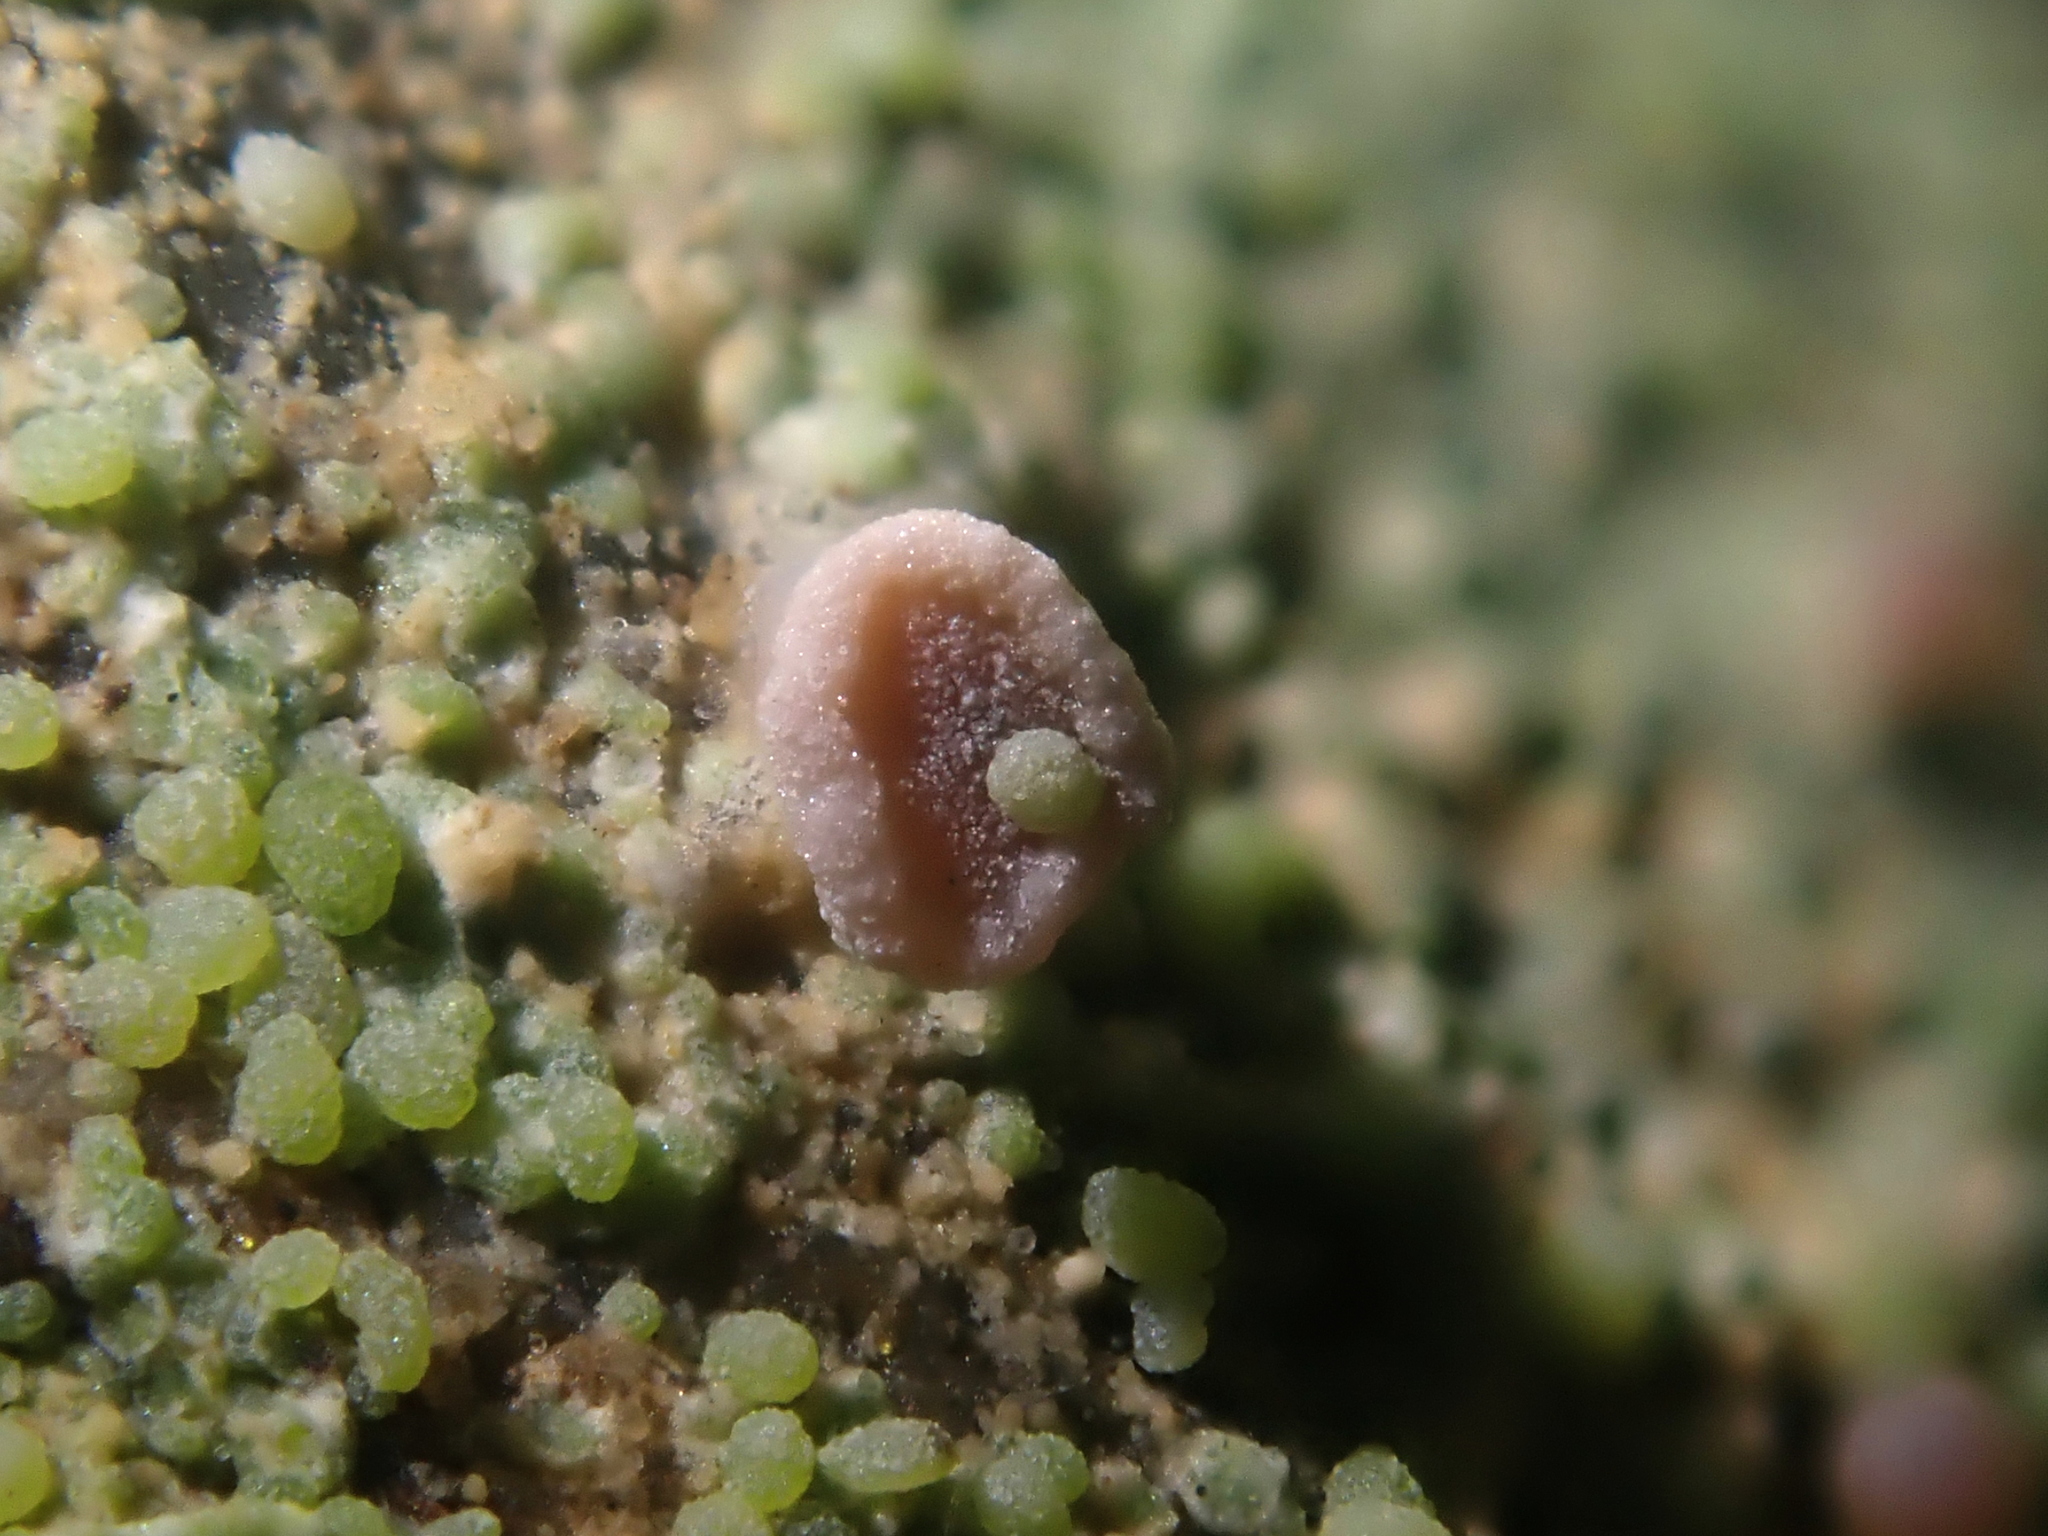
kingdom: Fungi
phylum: Ascomycota
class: Lecanoromycetes
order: Baeomycetales
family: Baeomycetaceae
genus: Baeomyces
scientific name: Baeomyces heteromorphus
